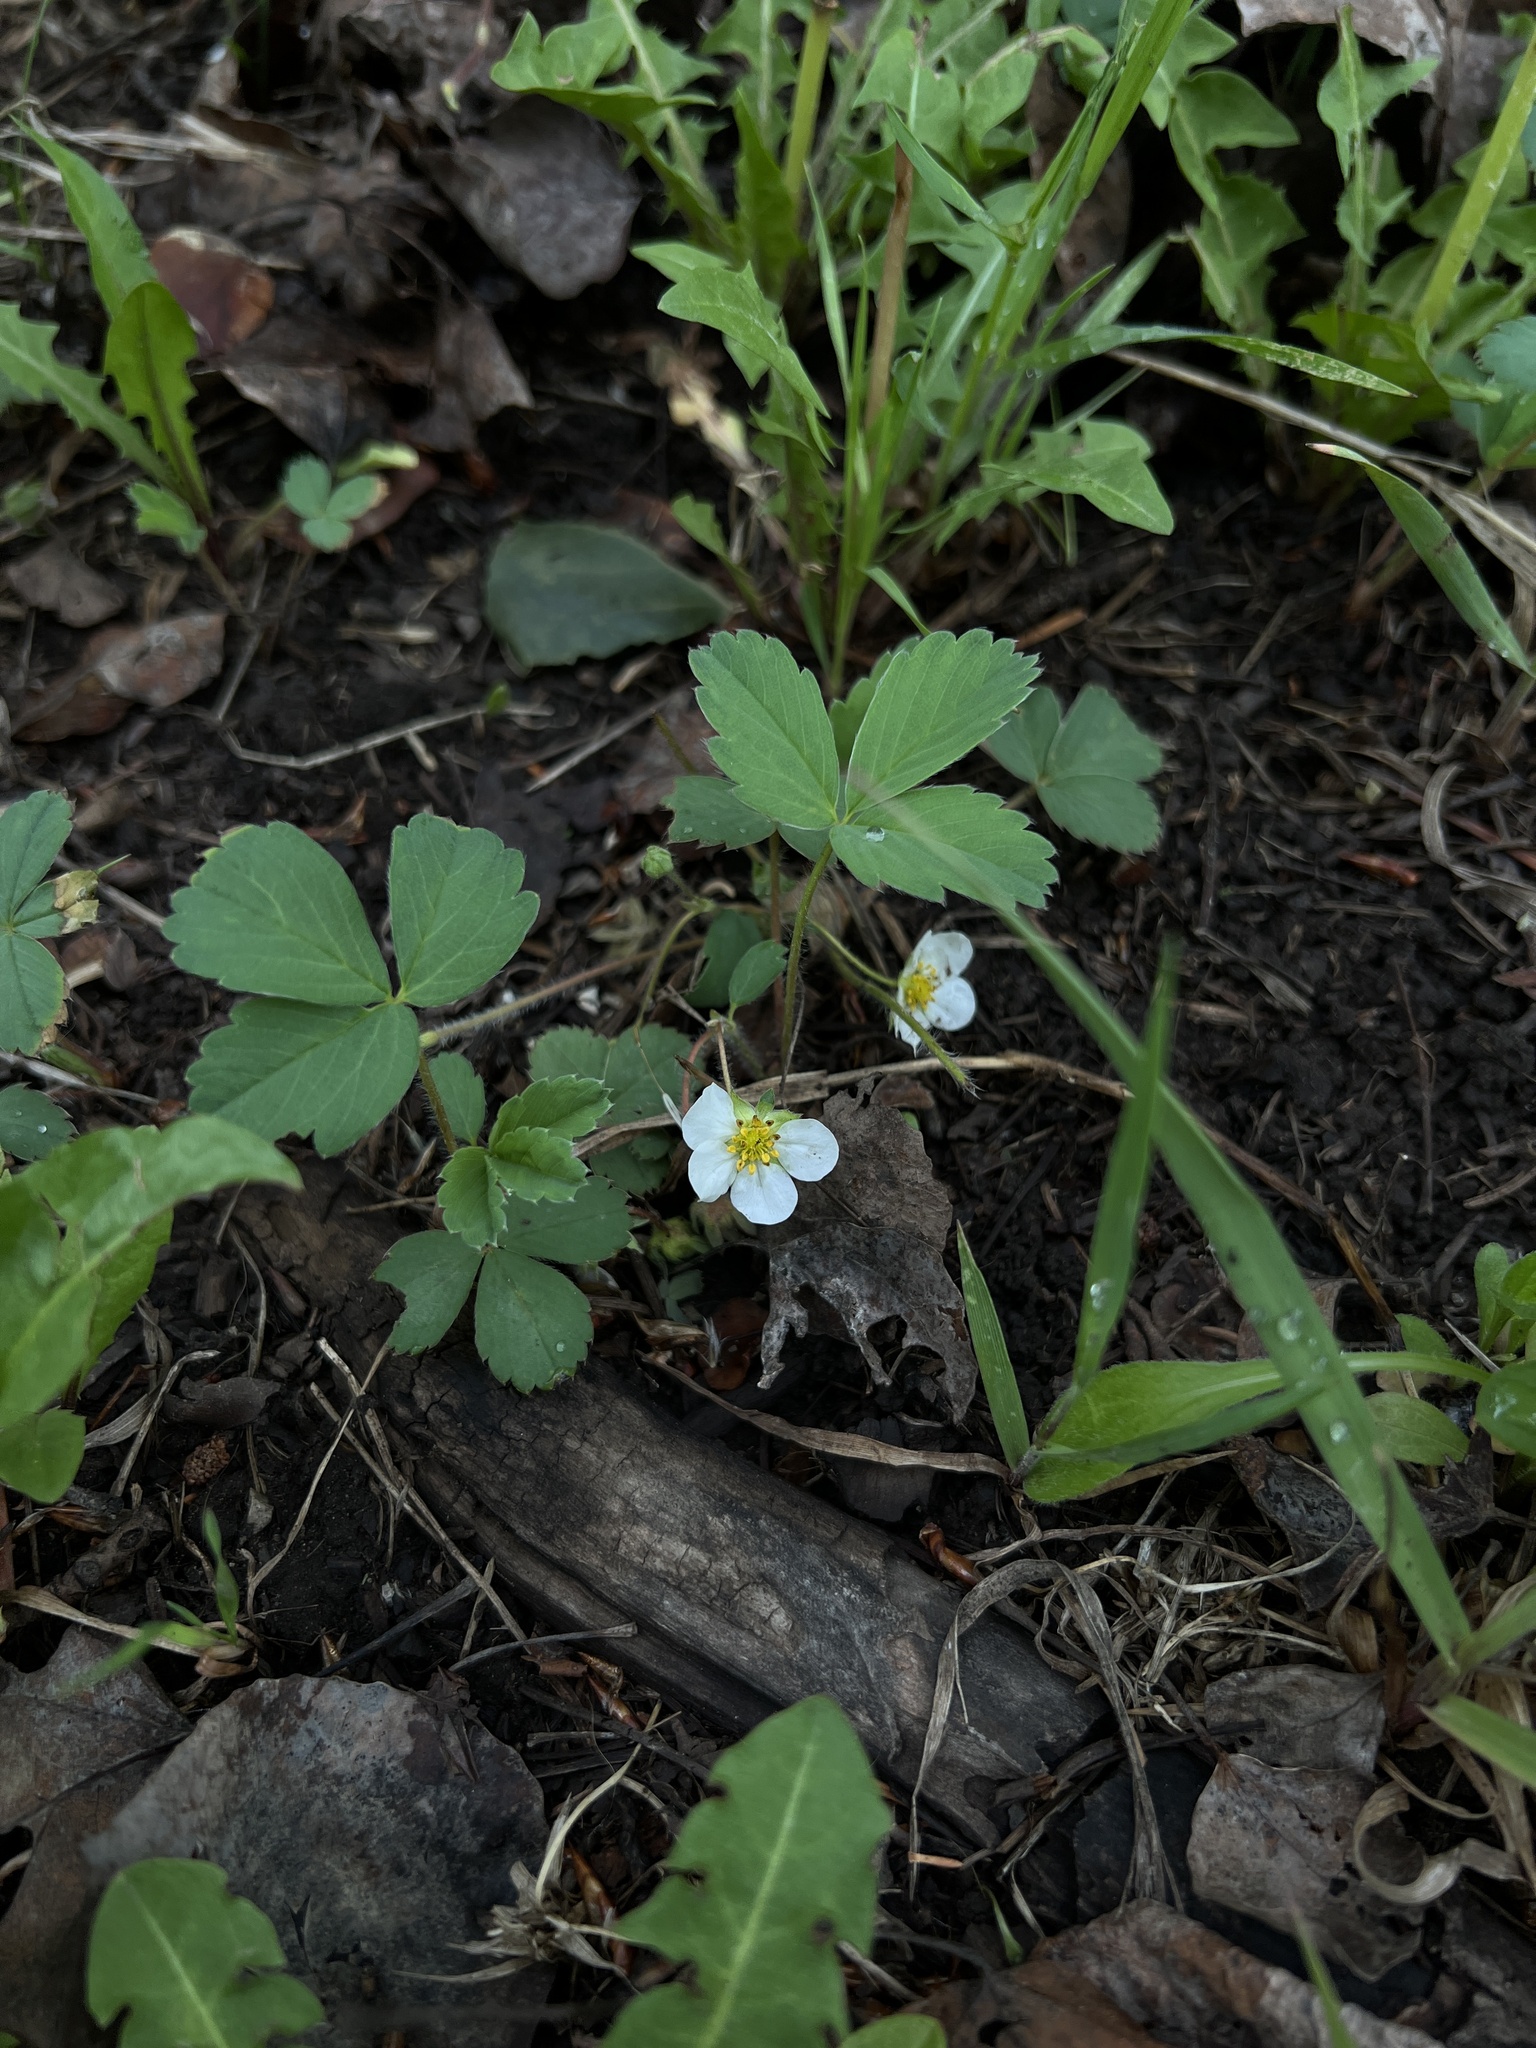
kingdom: Plantae
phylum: Tracheophyta
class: Magnoliopsida
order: Rosales
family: Rosaceae
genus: Fragaria
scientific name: Fragaria virginiana
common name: Thickleaved wild strawberry
